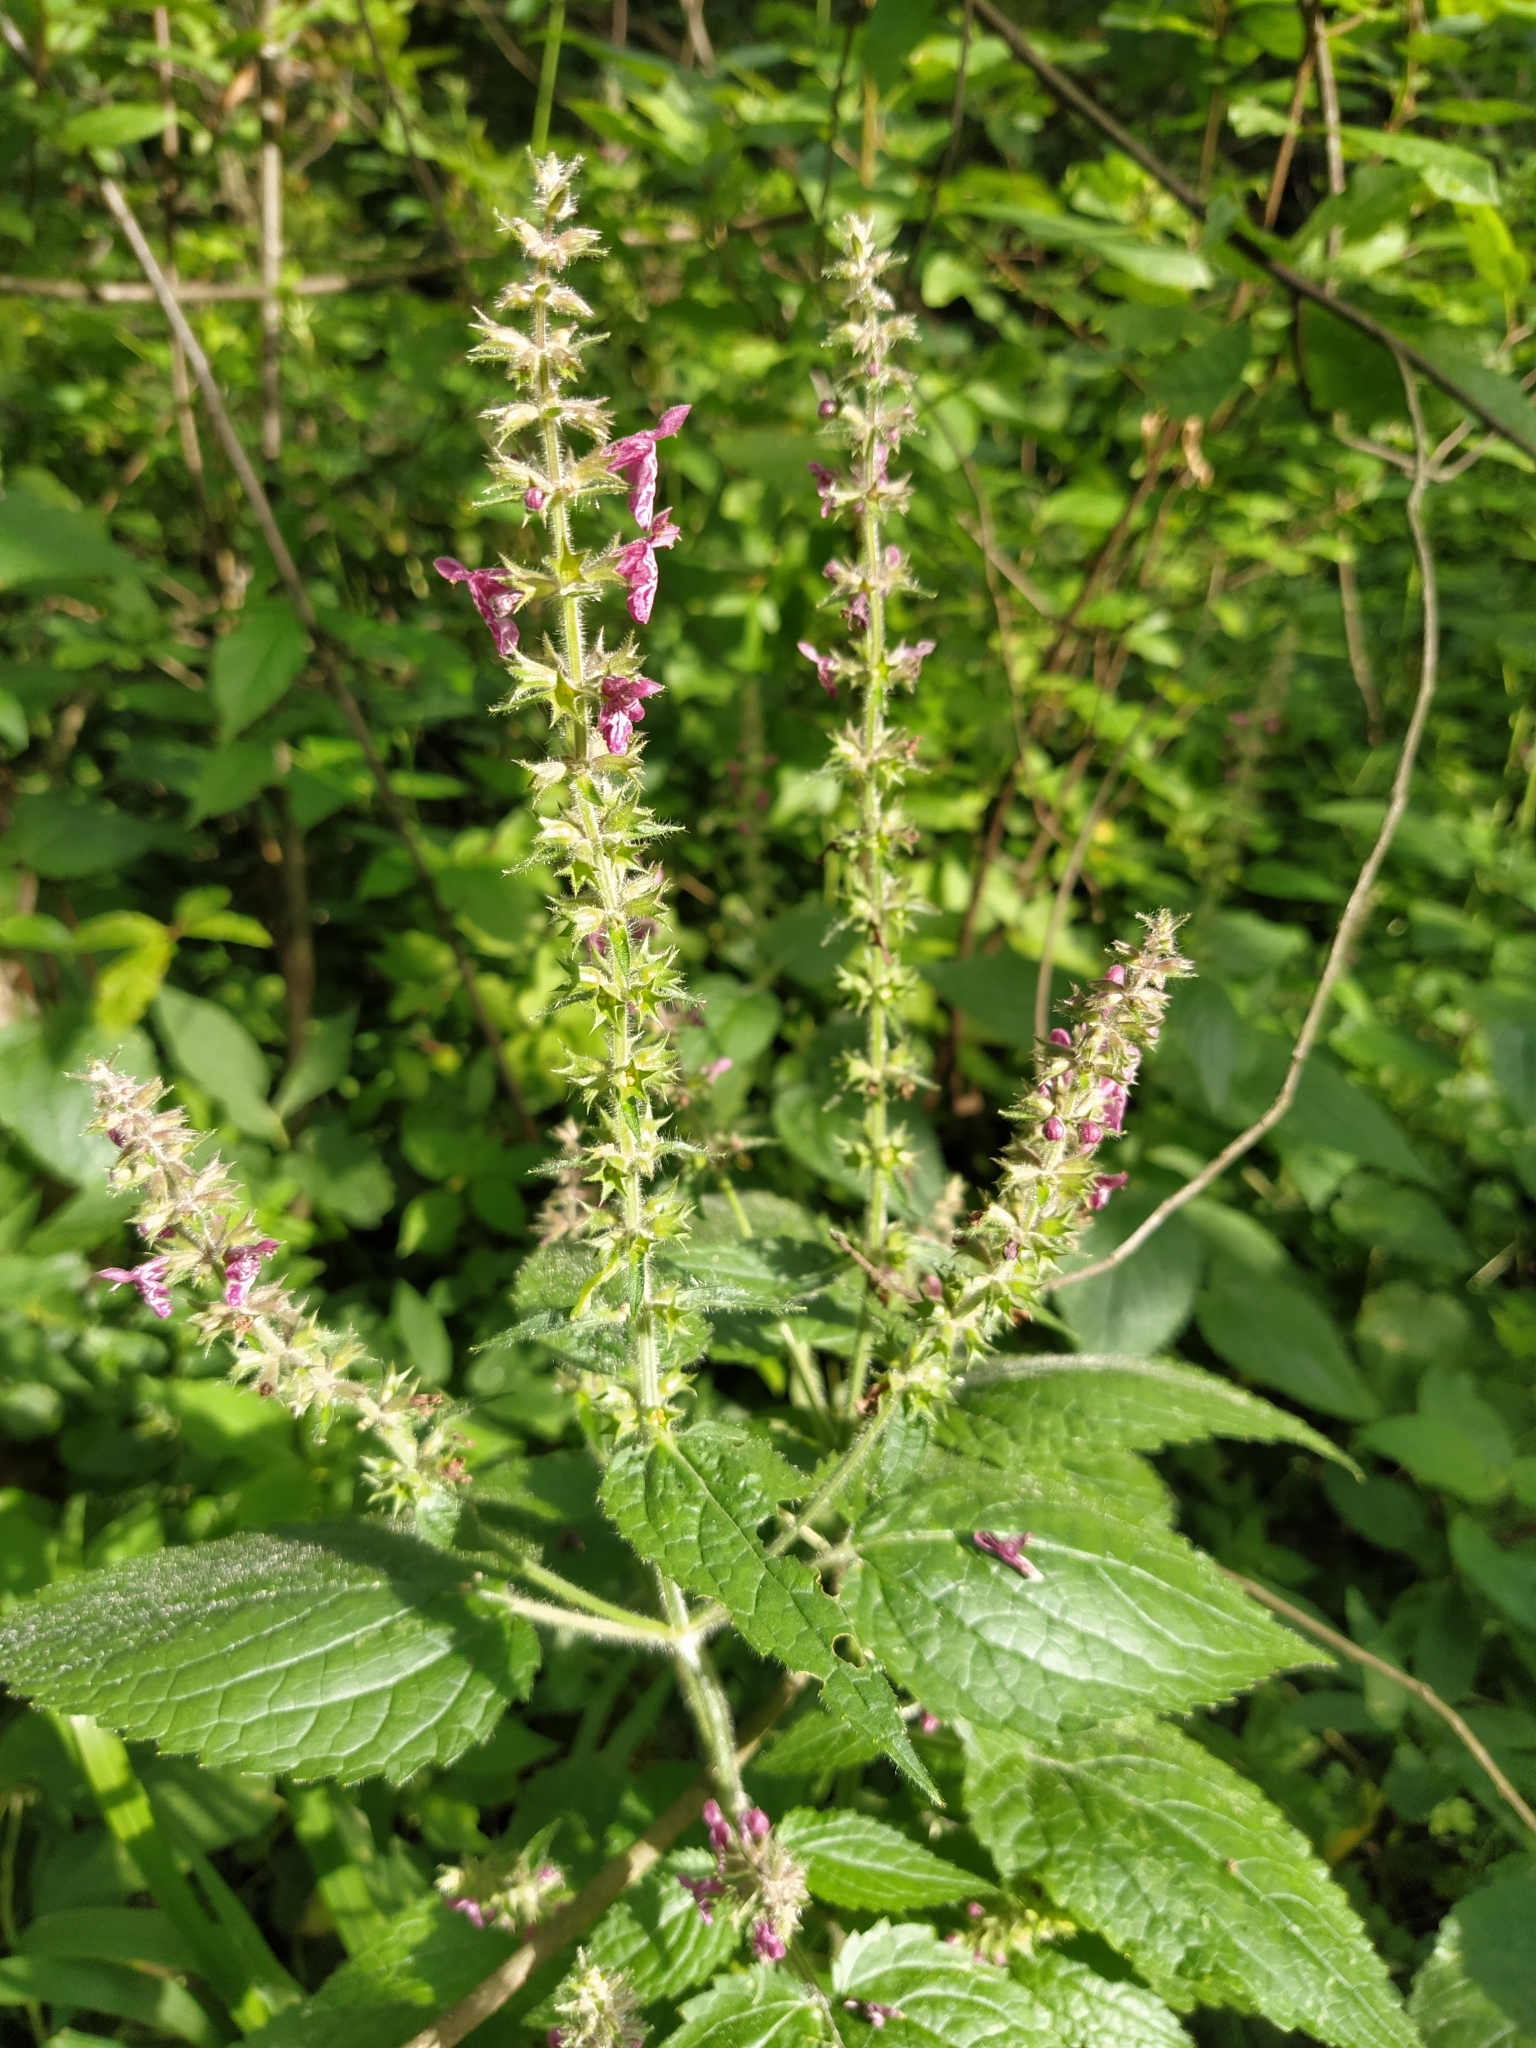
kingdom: Plantae
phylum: Tracheophyta
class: Magnoliopsida
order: Lamiales
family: Lamiaceae
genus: Stachys
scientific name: Stachys sylvatica
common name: Hedge woundwort
